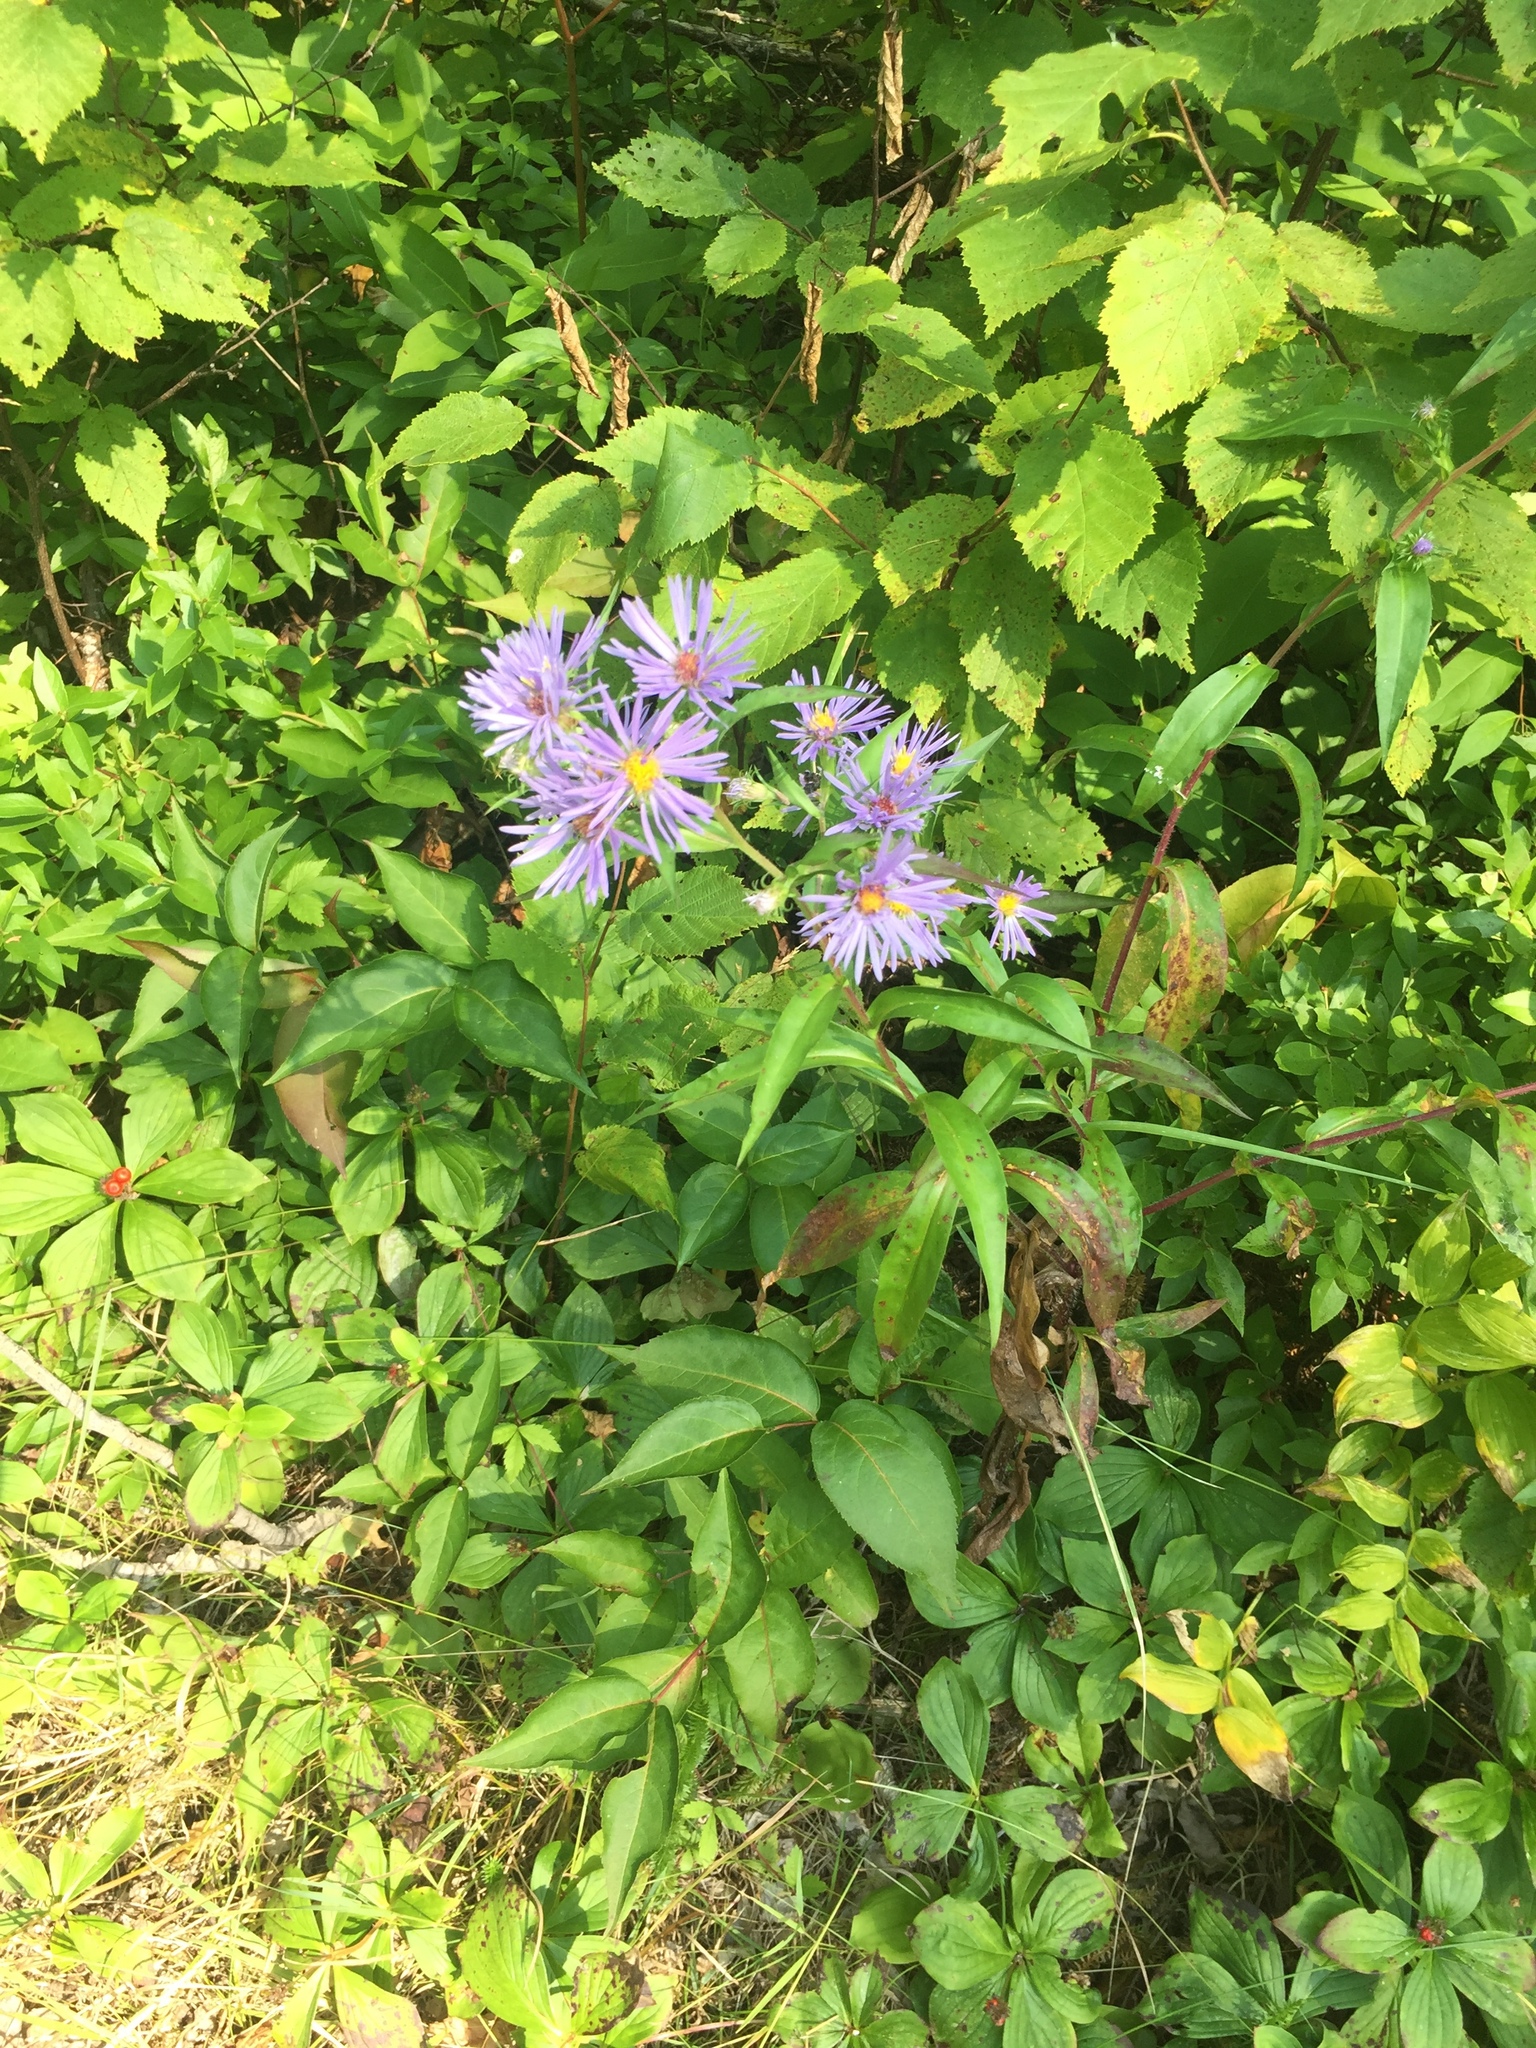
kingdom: Plantae
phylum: Tracheophyta
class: Magnoliopsida
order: Asterales
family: Asteraceae
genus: Symphyotrichum
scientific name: Symphyotrichum puniceum
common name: Bog aster
